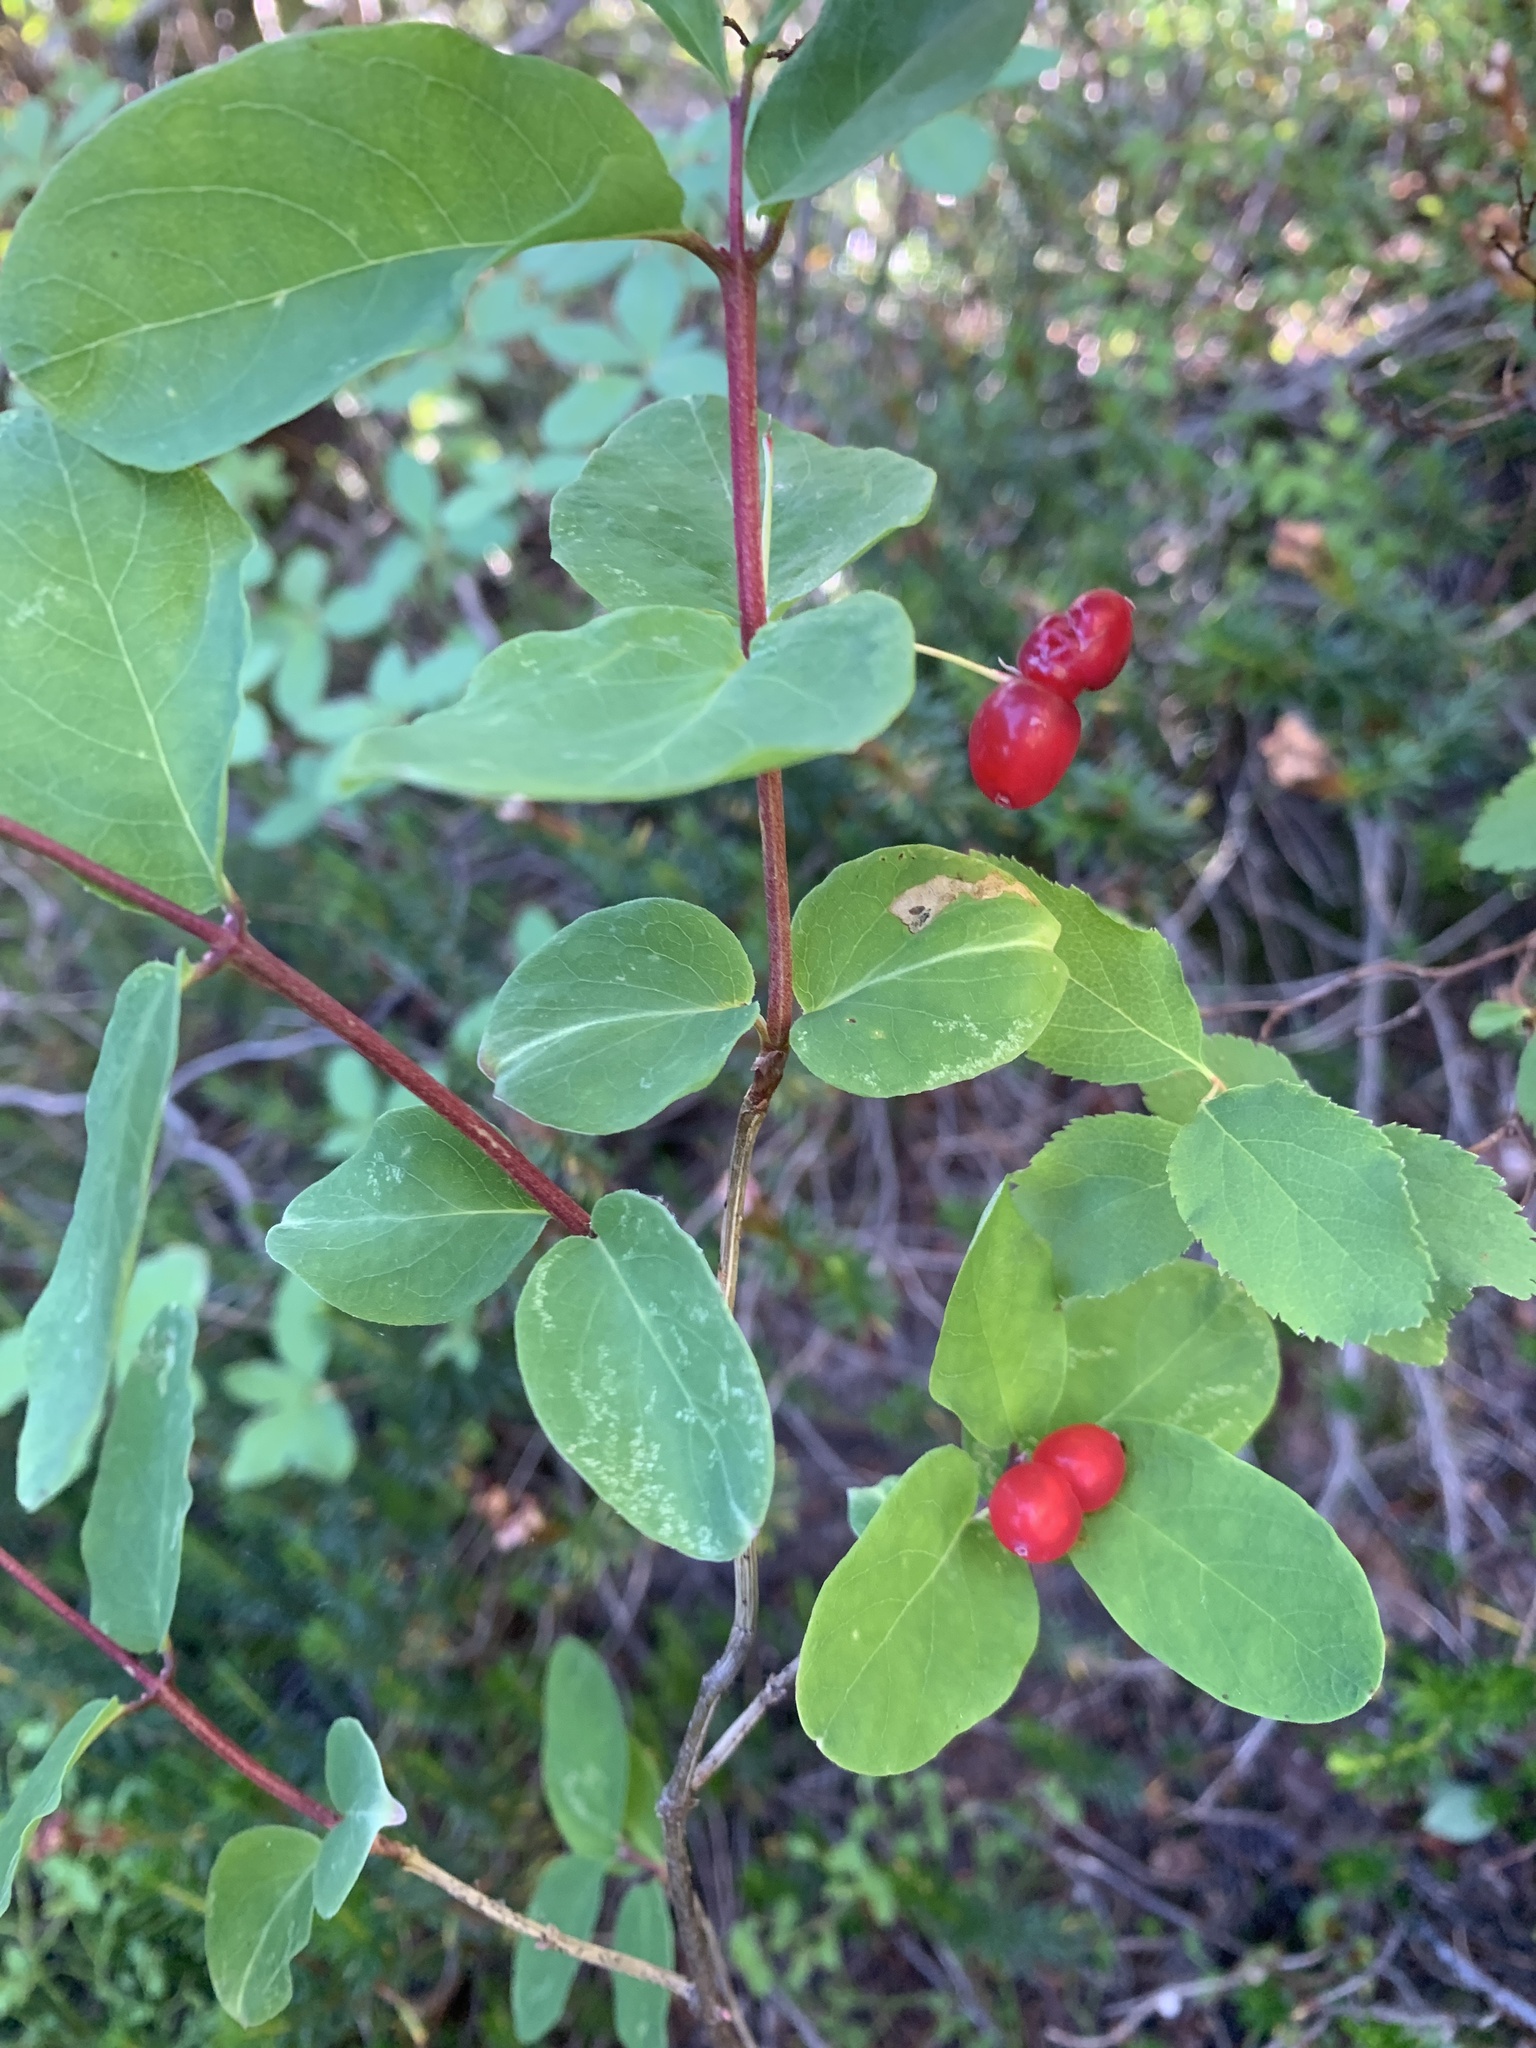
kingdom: Plantae
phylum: Tracheophyta
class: Magnoliopsida
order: Dipsacales
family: Caprifoliaceae
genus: Lonicera
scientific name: Lonicera utahensis
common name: Utah honeysuckle
